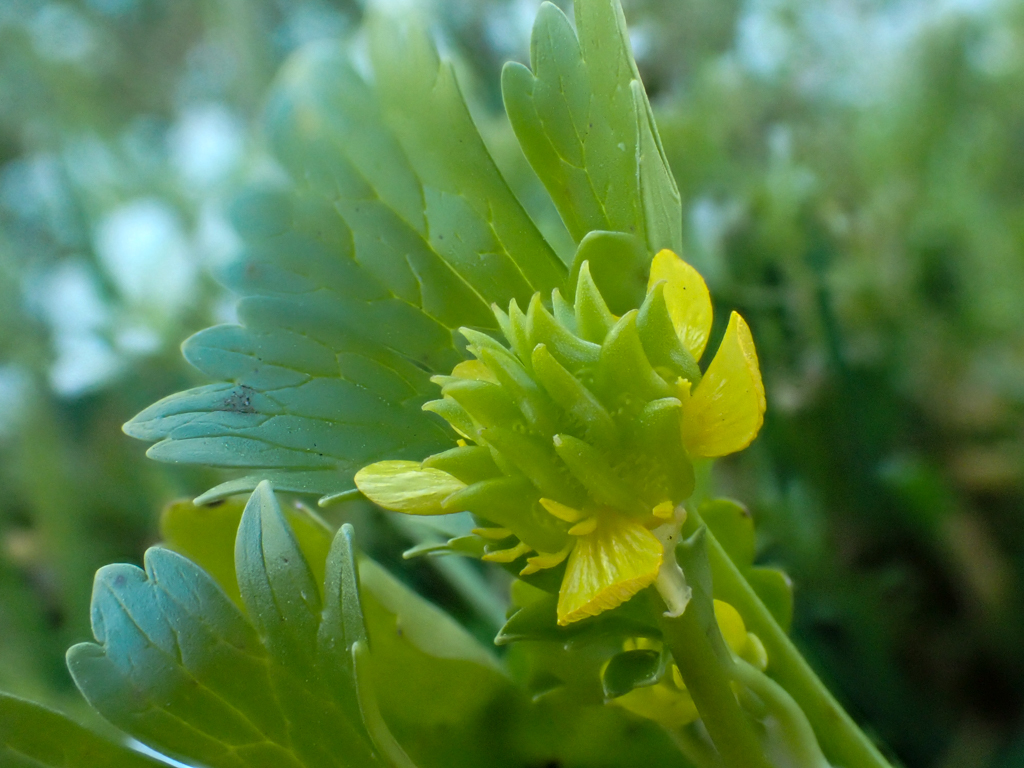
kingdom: Plantae
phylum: Tracheophyta
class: Magnoliopsida
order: Ranunculales
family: Ranunculaceae
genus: Ranunculus
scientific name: Ranunculus muricatus
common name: Rough-fruited buttercup
